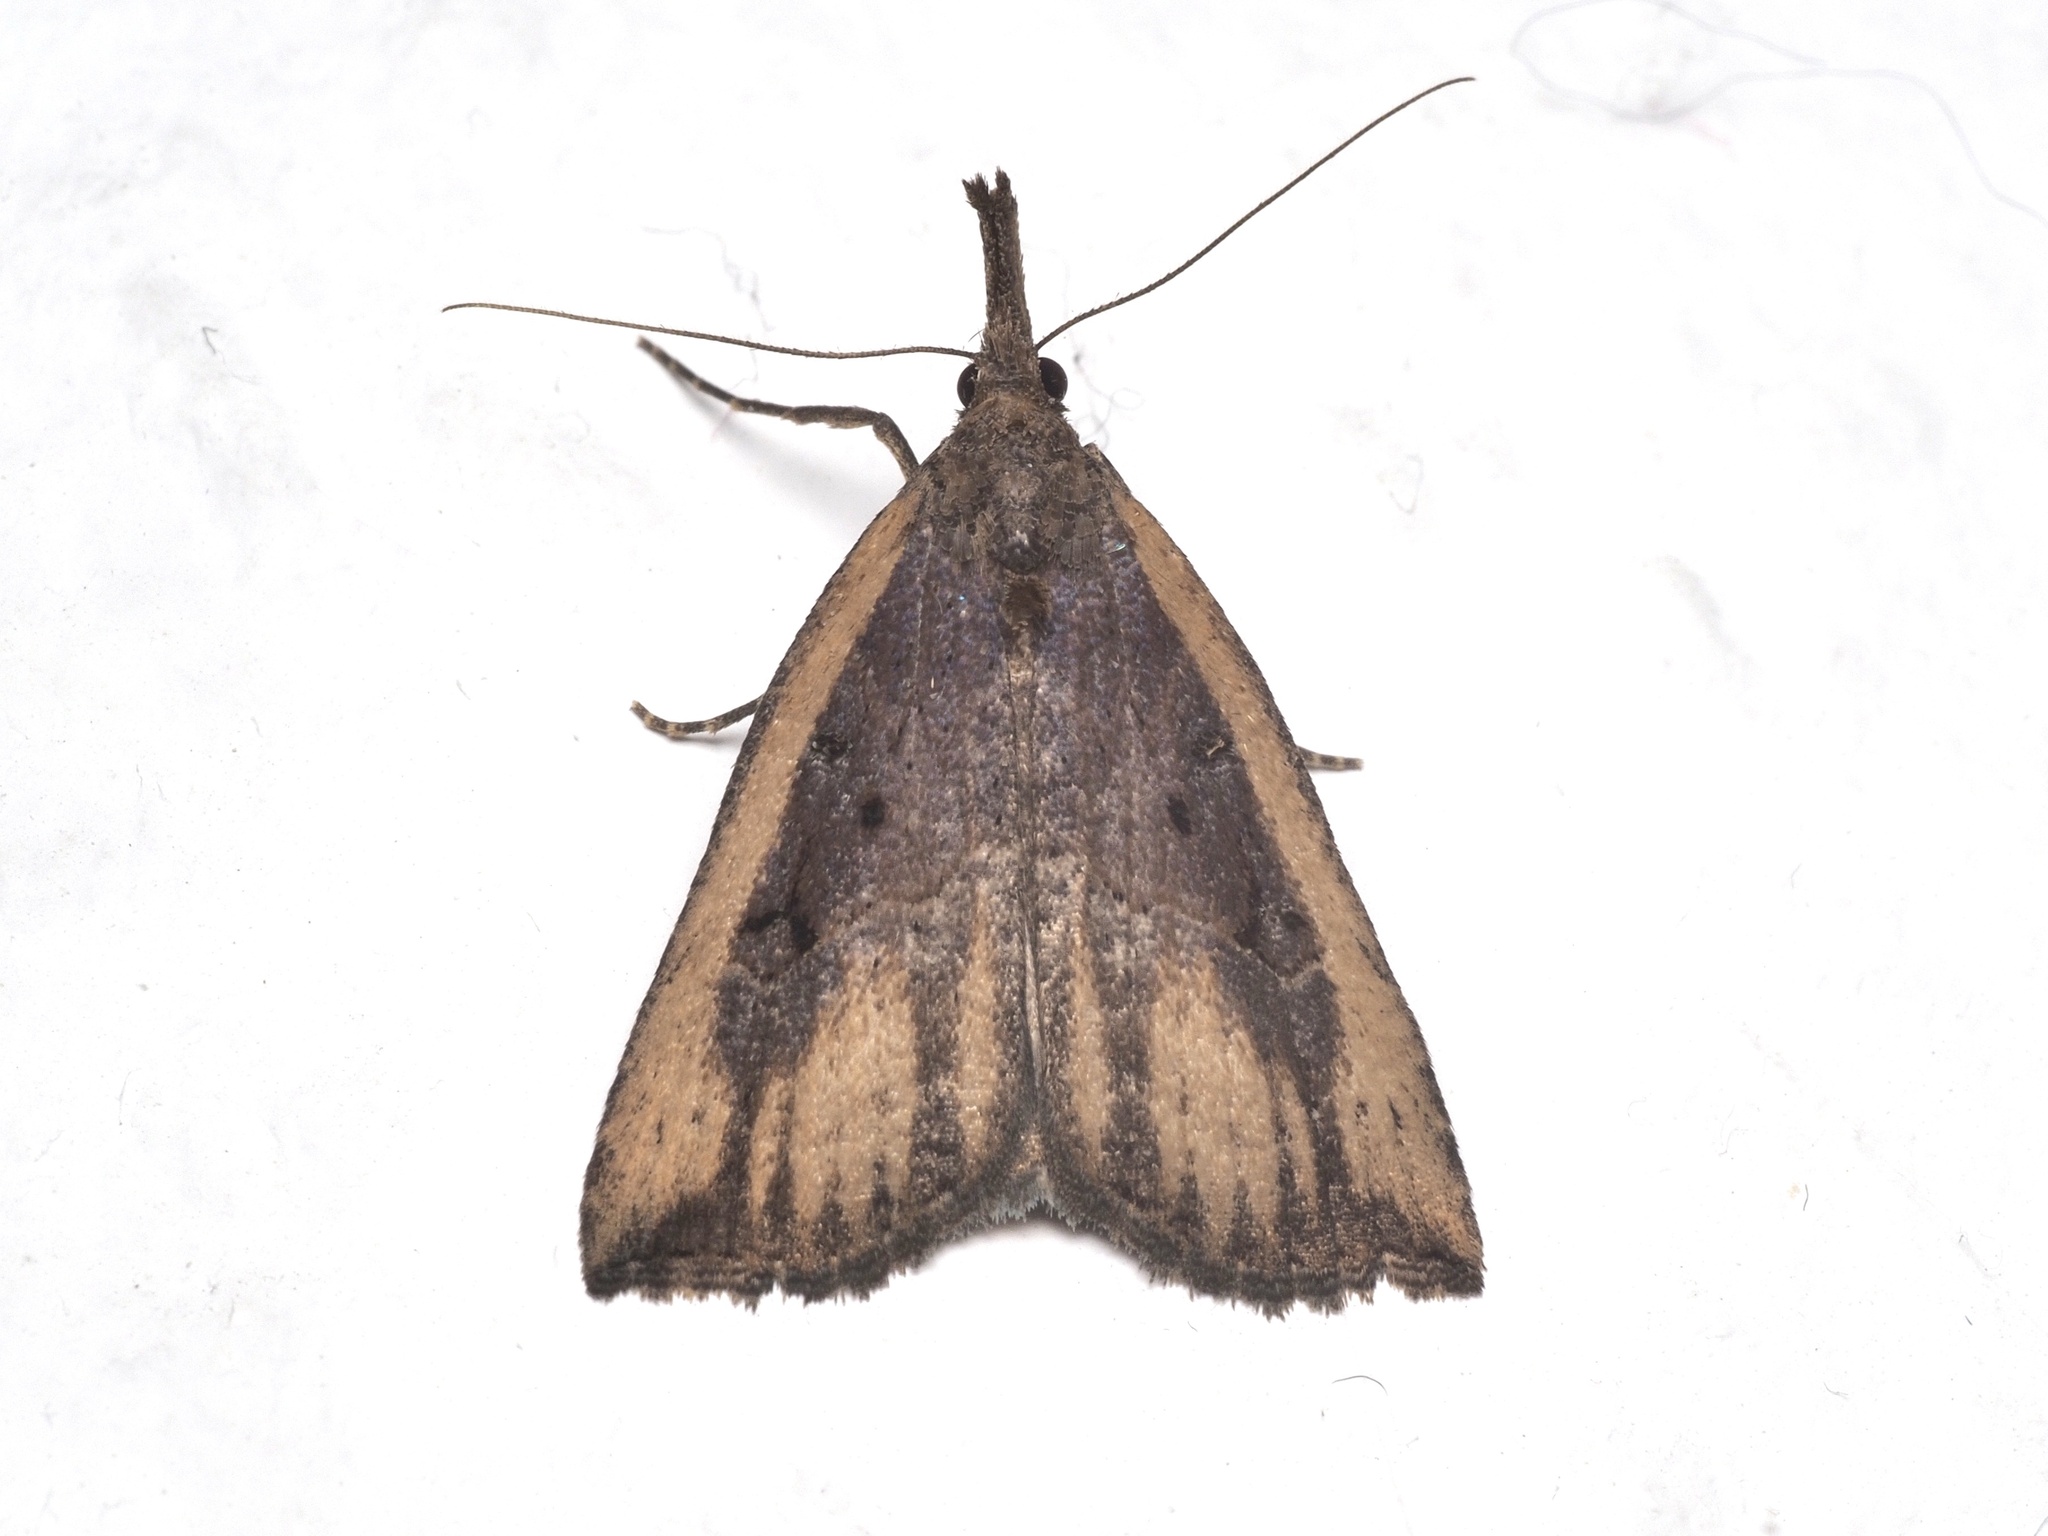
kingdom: Animalia
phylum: Arthropoda
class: Insecta
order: Lepidoptera
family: Erebidae
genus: Hypena
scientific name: Hypena rostralis
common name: Buttoned snout
